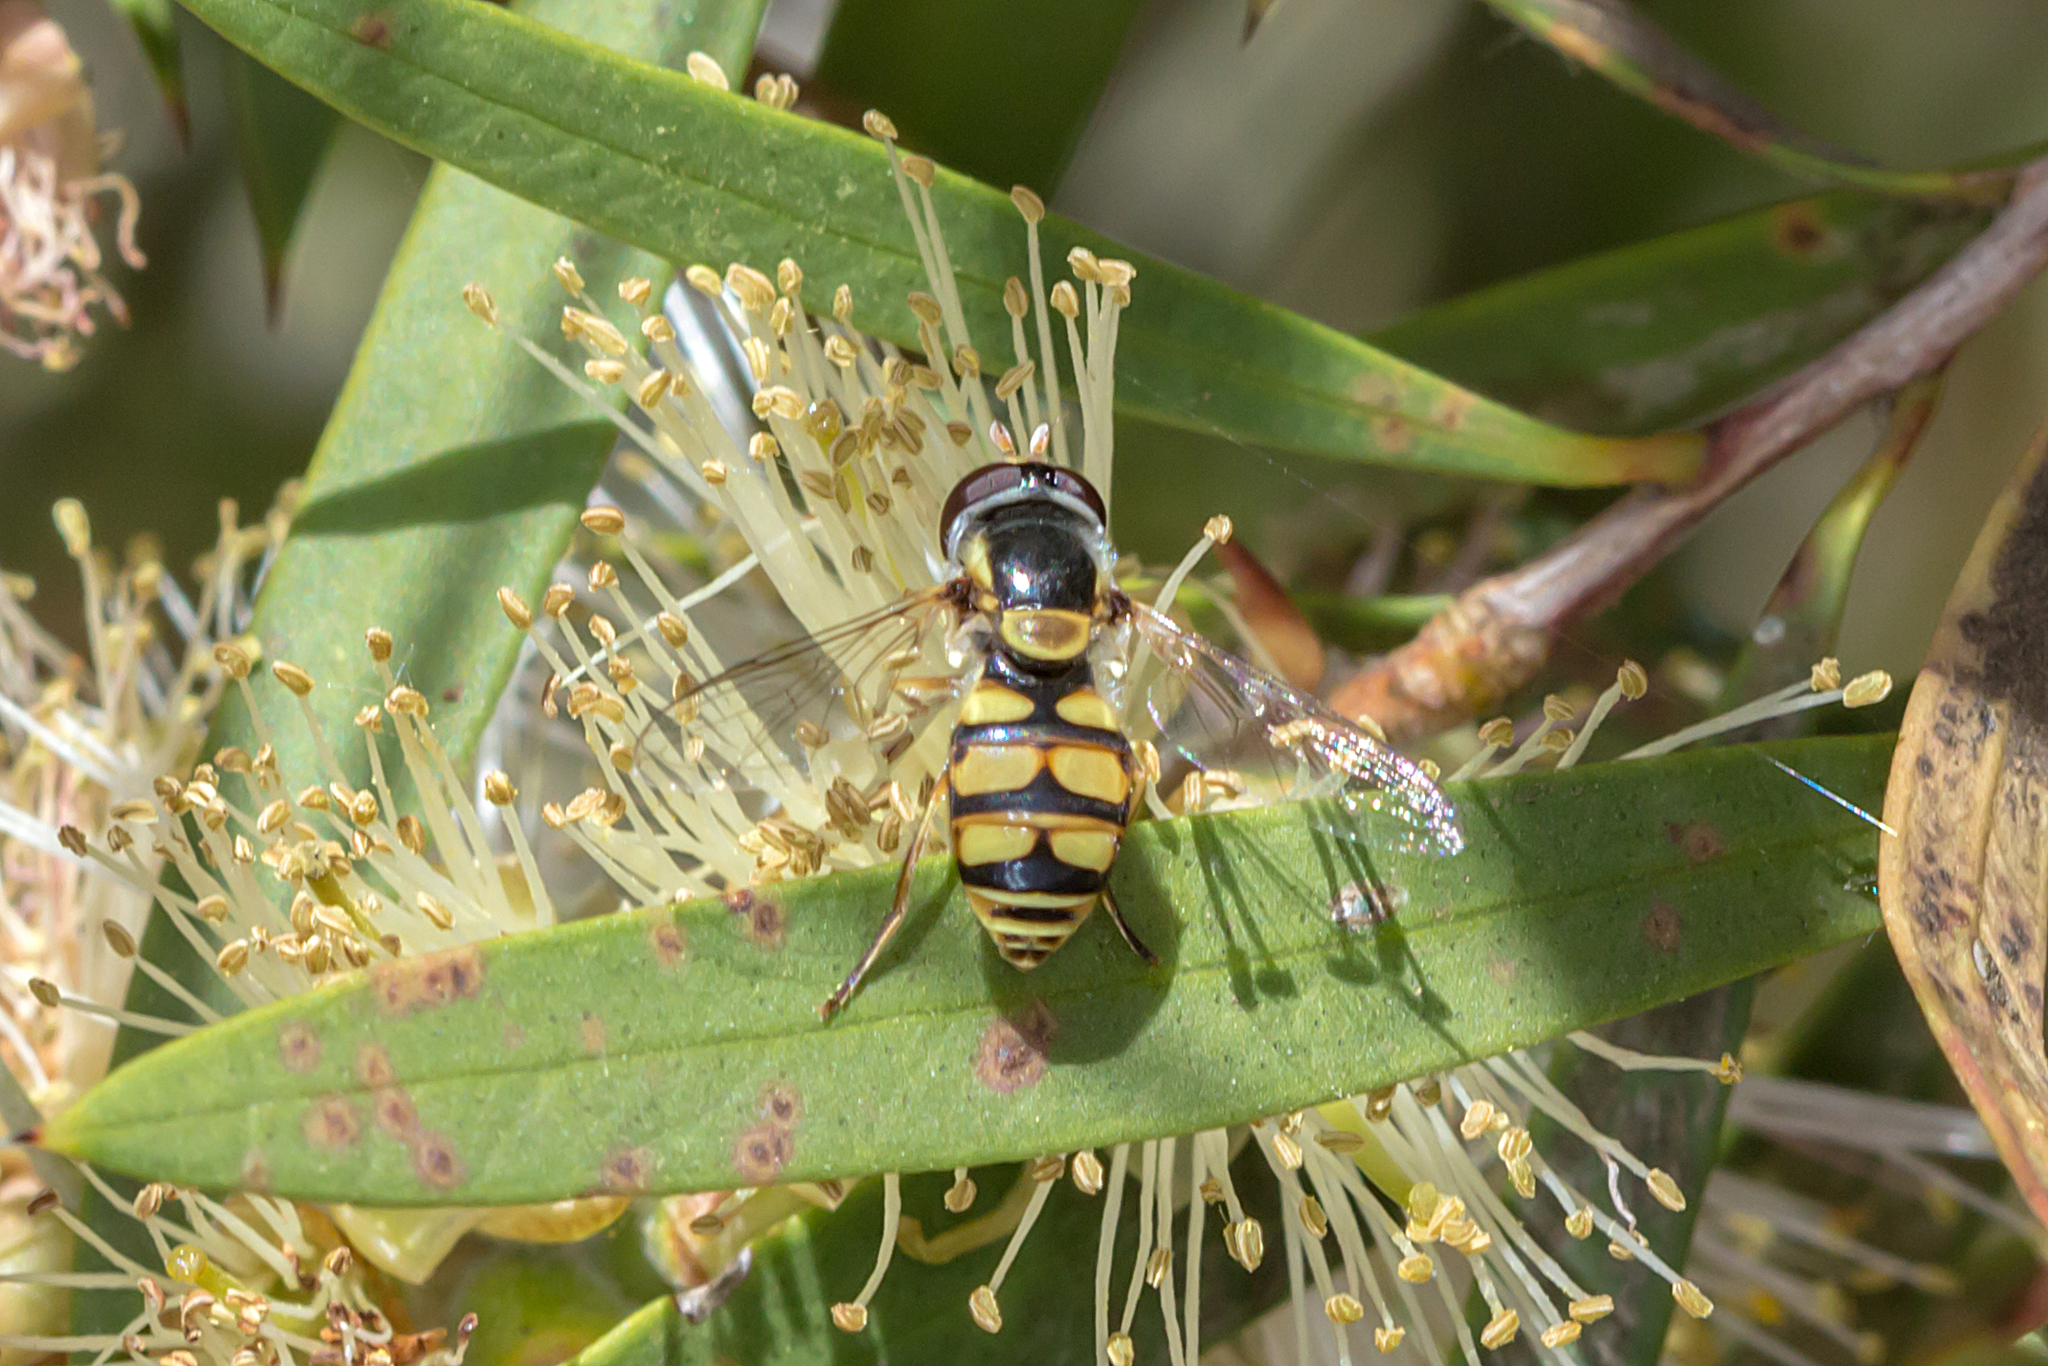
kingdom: Animalia
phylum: Arthropoda
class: Insecta
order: Diptera
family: Syrphidae
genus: Simosyrphus
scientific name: Simosyrphus grandicornis
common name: Hoverfly
